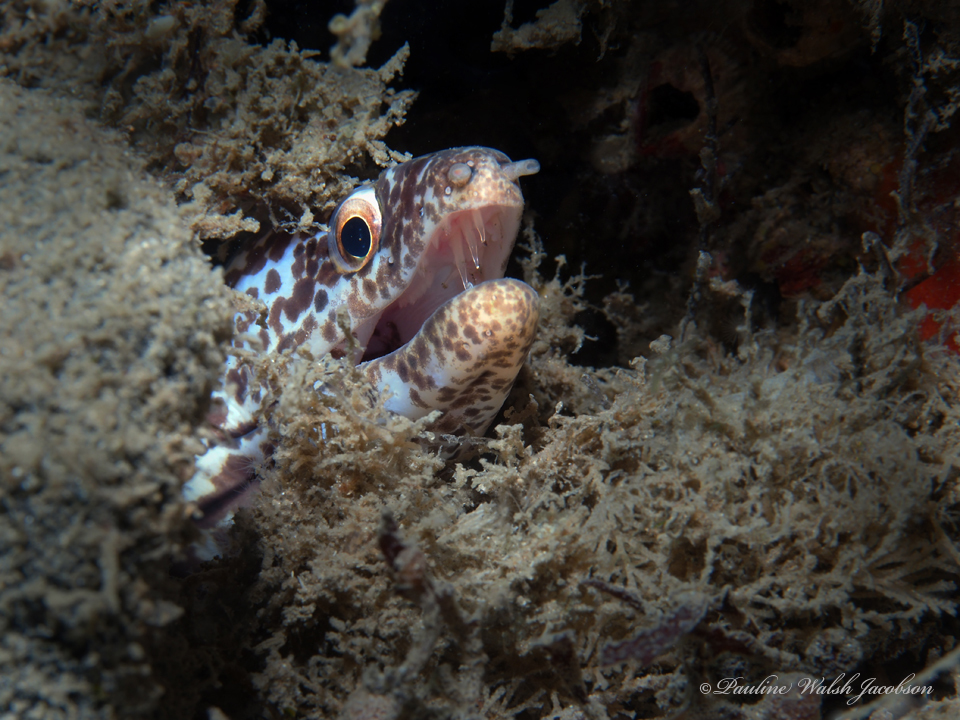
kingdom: Animalia
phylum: Chordata
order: Anguilliformes
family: Muraenidae
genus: Gymnothorax
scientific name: Gymnothorax moringa
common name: Spotted moray
